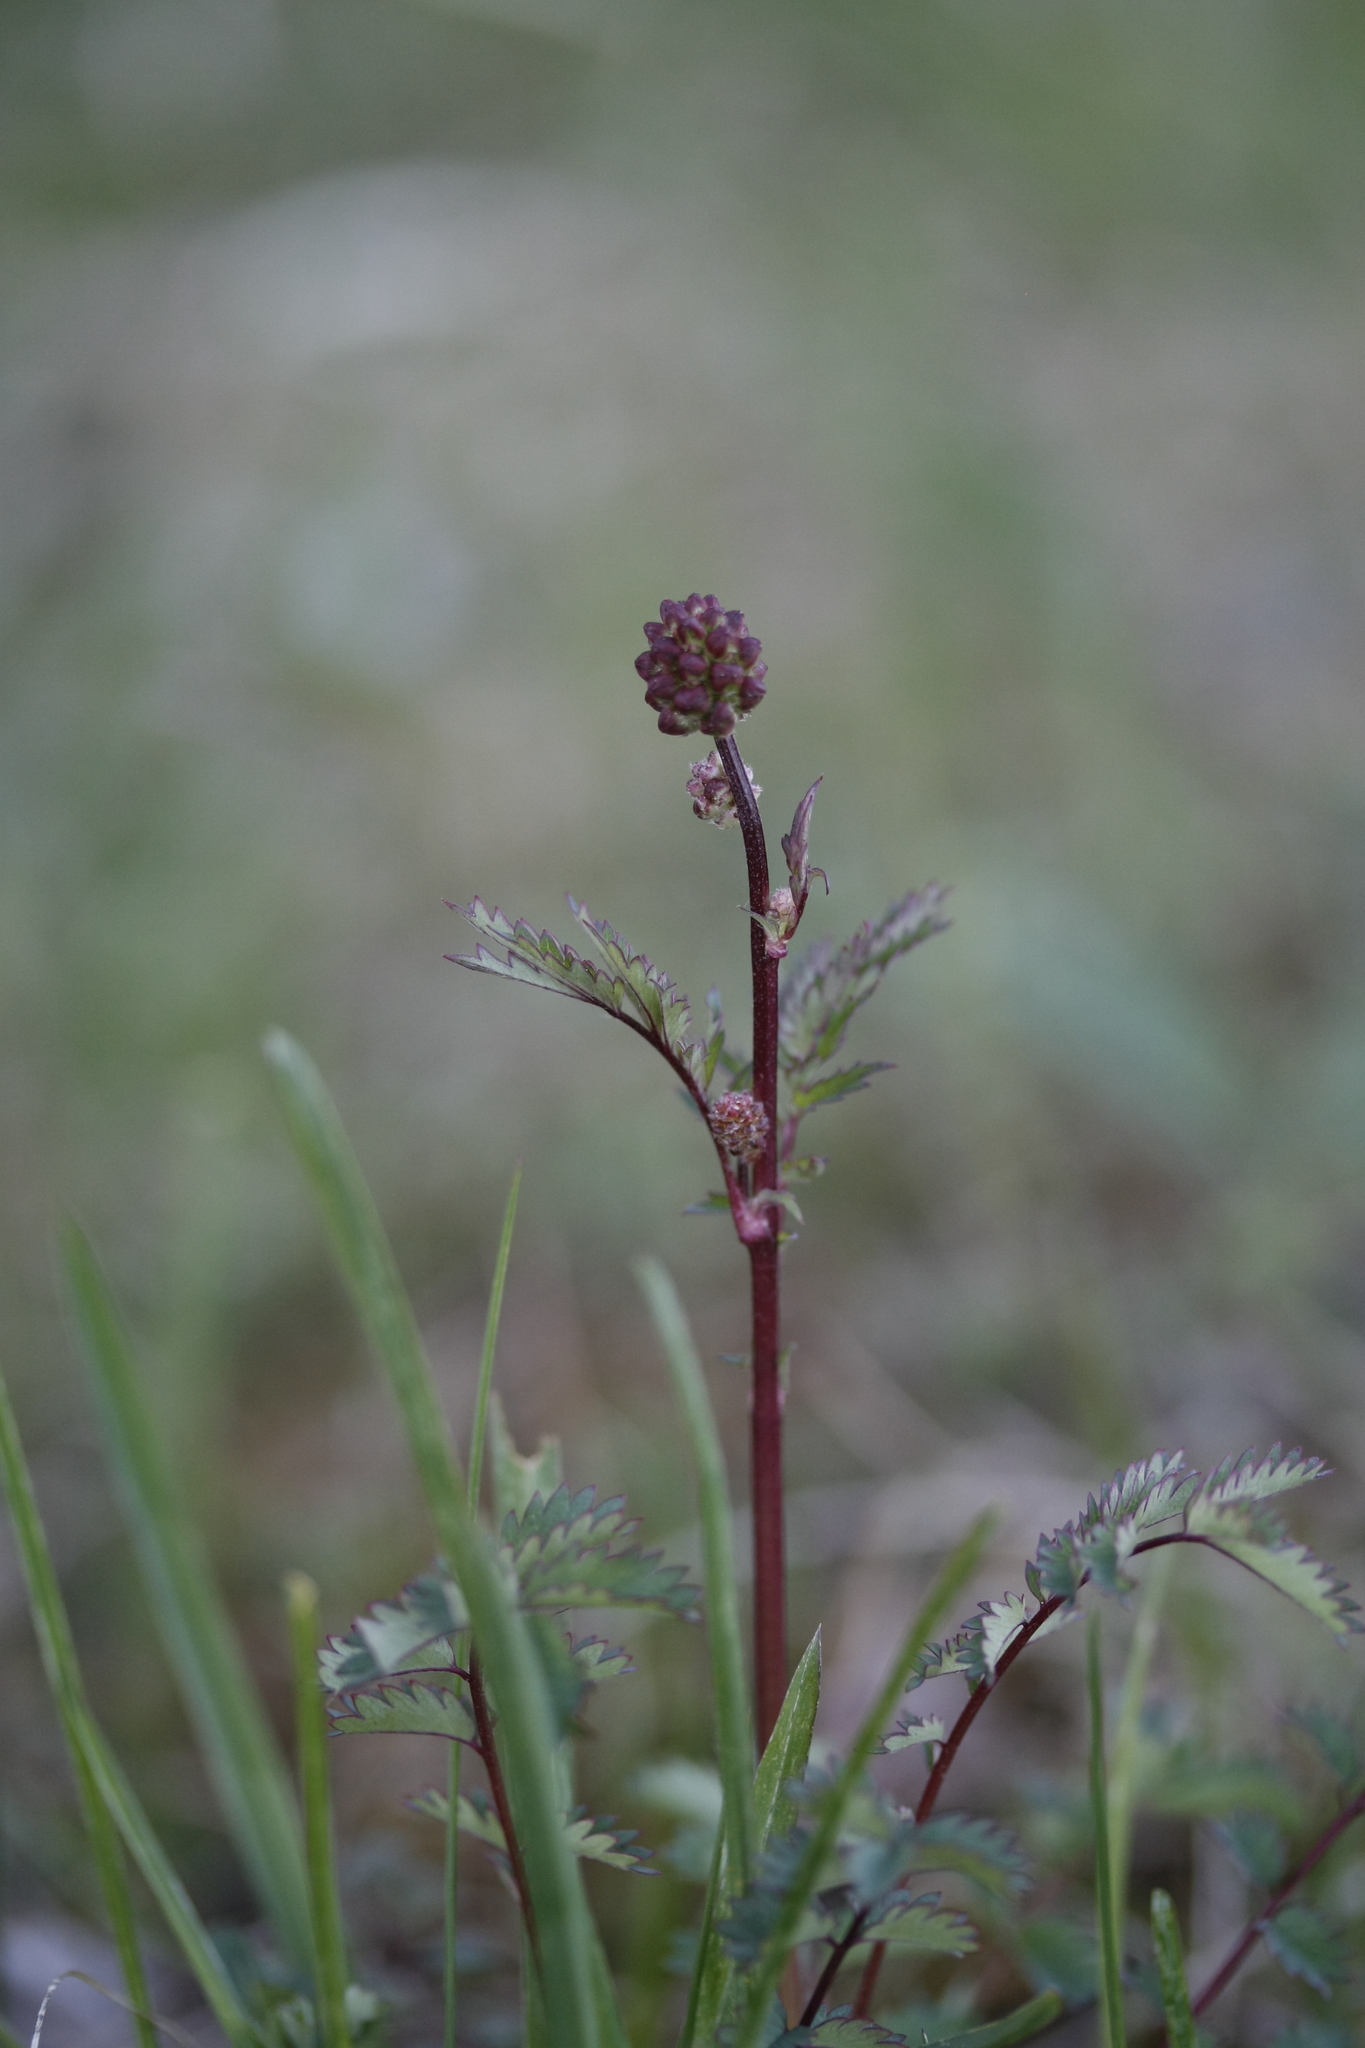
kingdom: Plantae
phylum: Tracheophyta
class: Magnoliopsida
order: Rosales
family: Rosaceae
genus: Poterium
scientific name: Poterium sanguisorba
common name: Salad burnet
